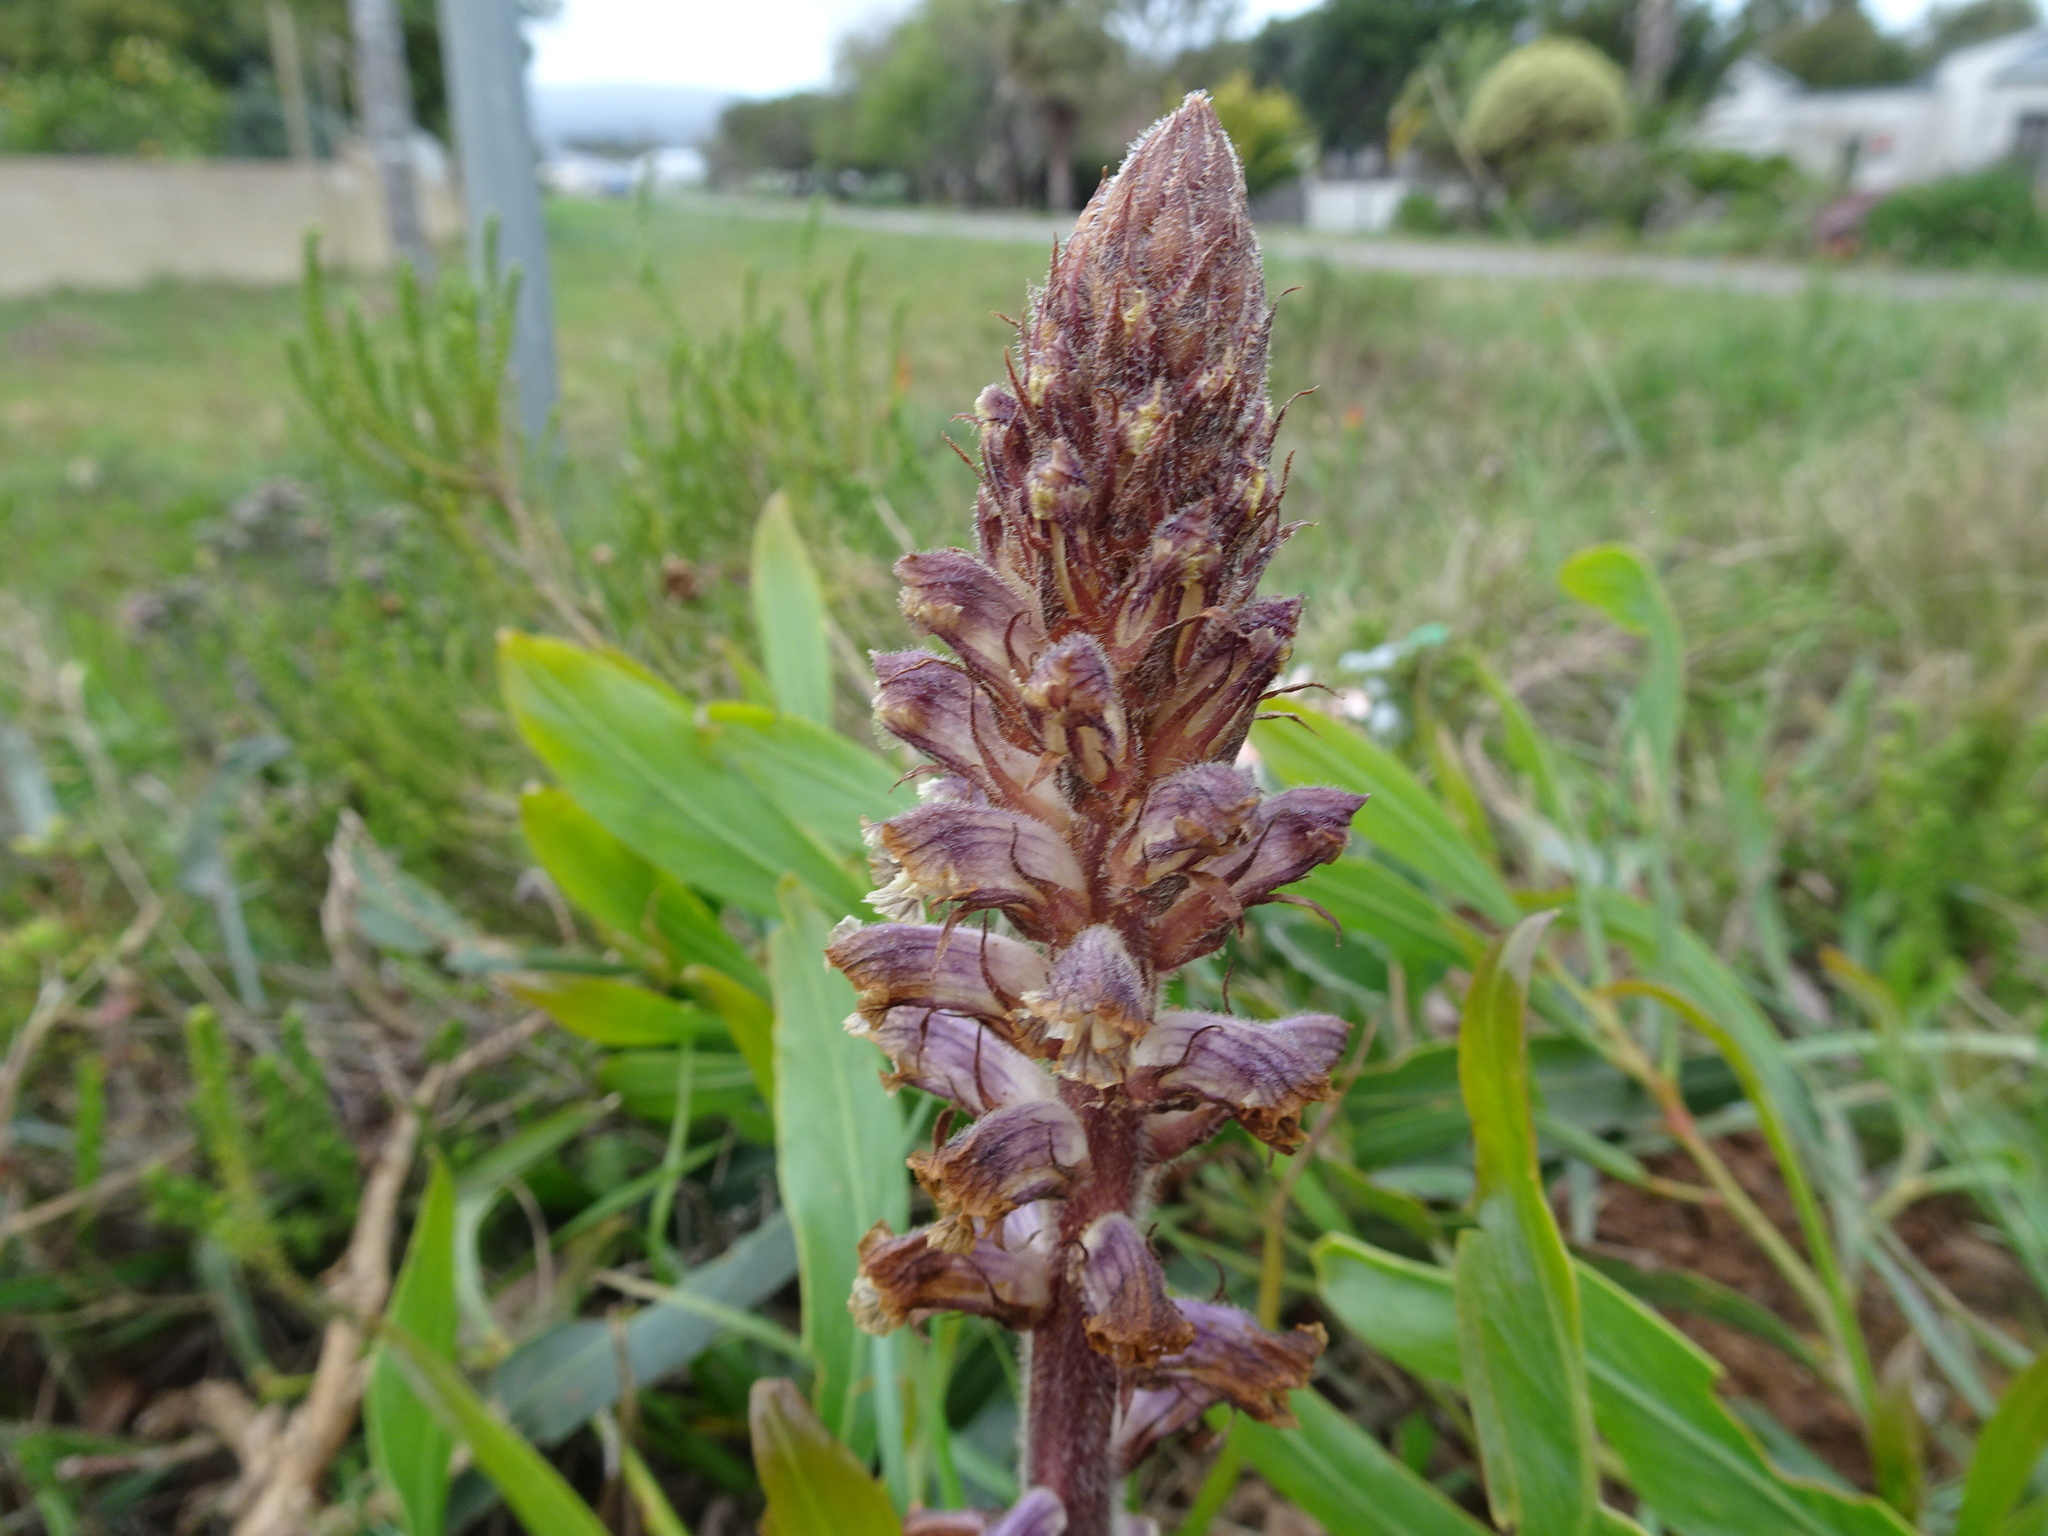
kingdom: Plantae
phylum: Tracheophyta
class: Magnoliopsida
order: Lamiales
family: Orobanchaceae
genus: Orobanche
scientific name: Orobanche minor
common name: Common broomrape
